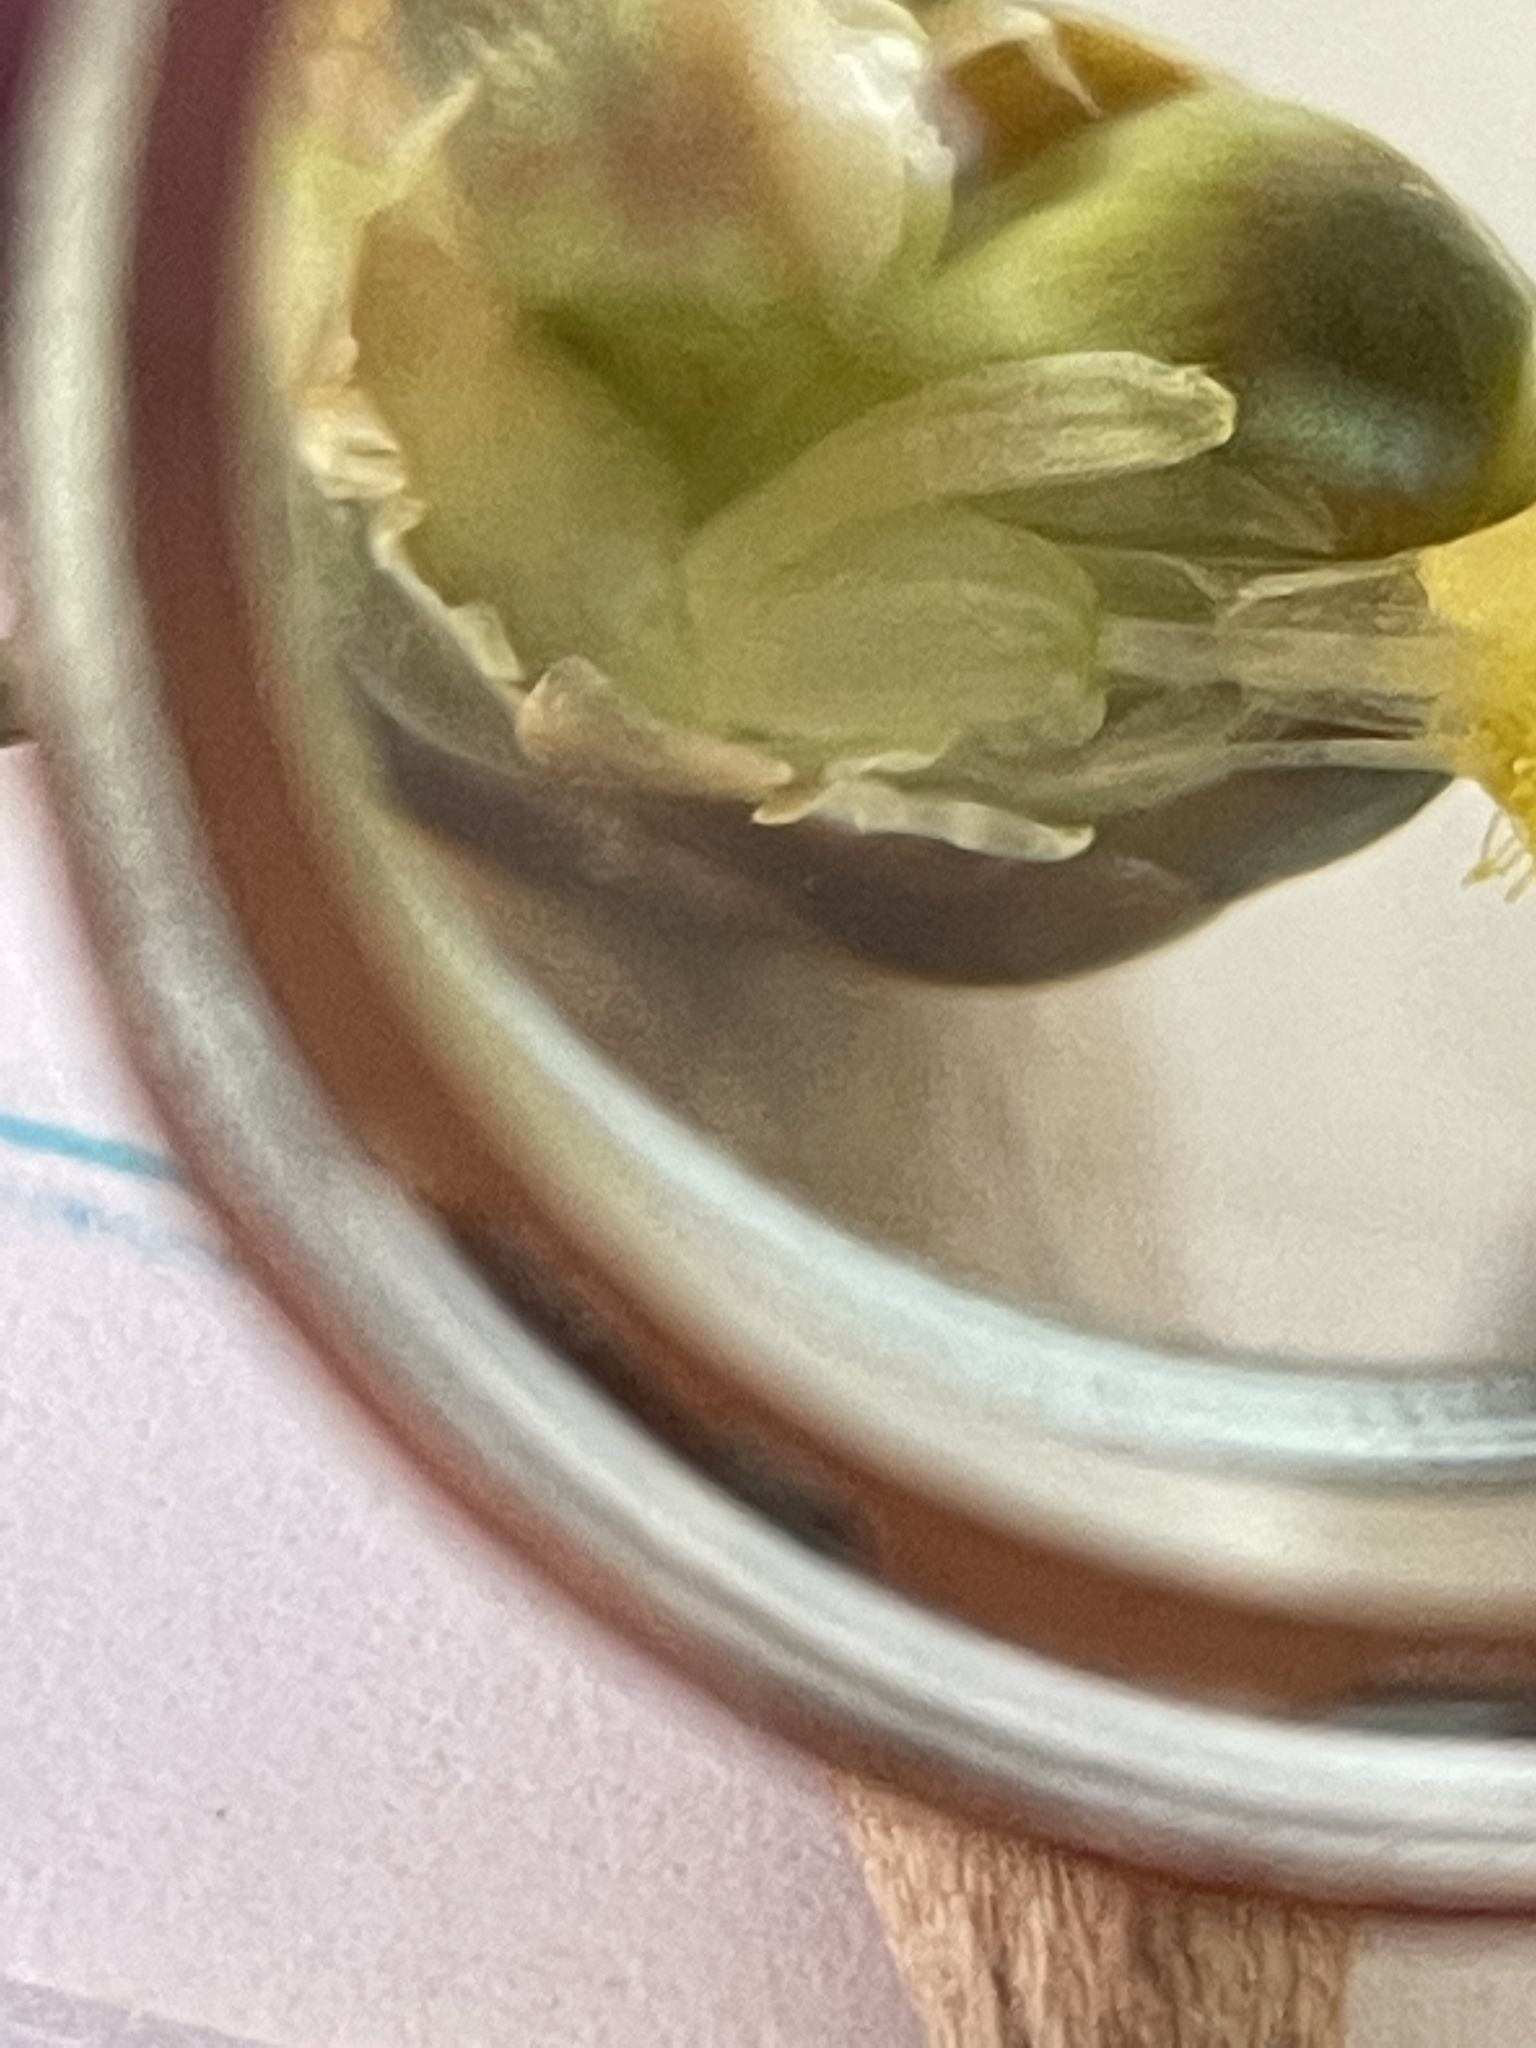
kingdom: Plantae
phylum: Tracheophyta
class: Liliopsida
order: Poales
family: Xyridaceae
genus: Xyris
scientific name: Xyris difformis
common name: Bog yellow-eyed-grass
